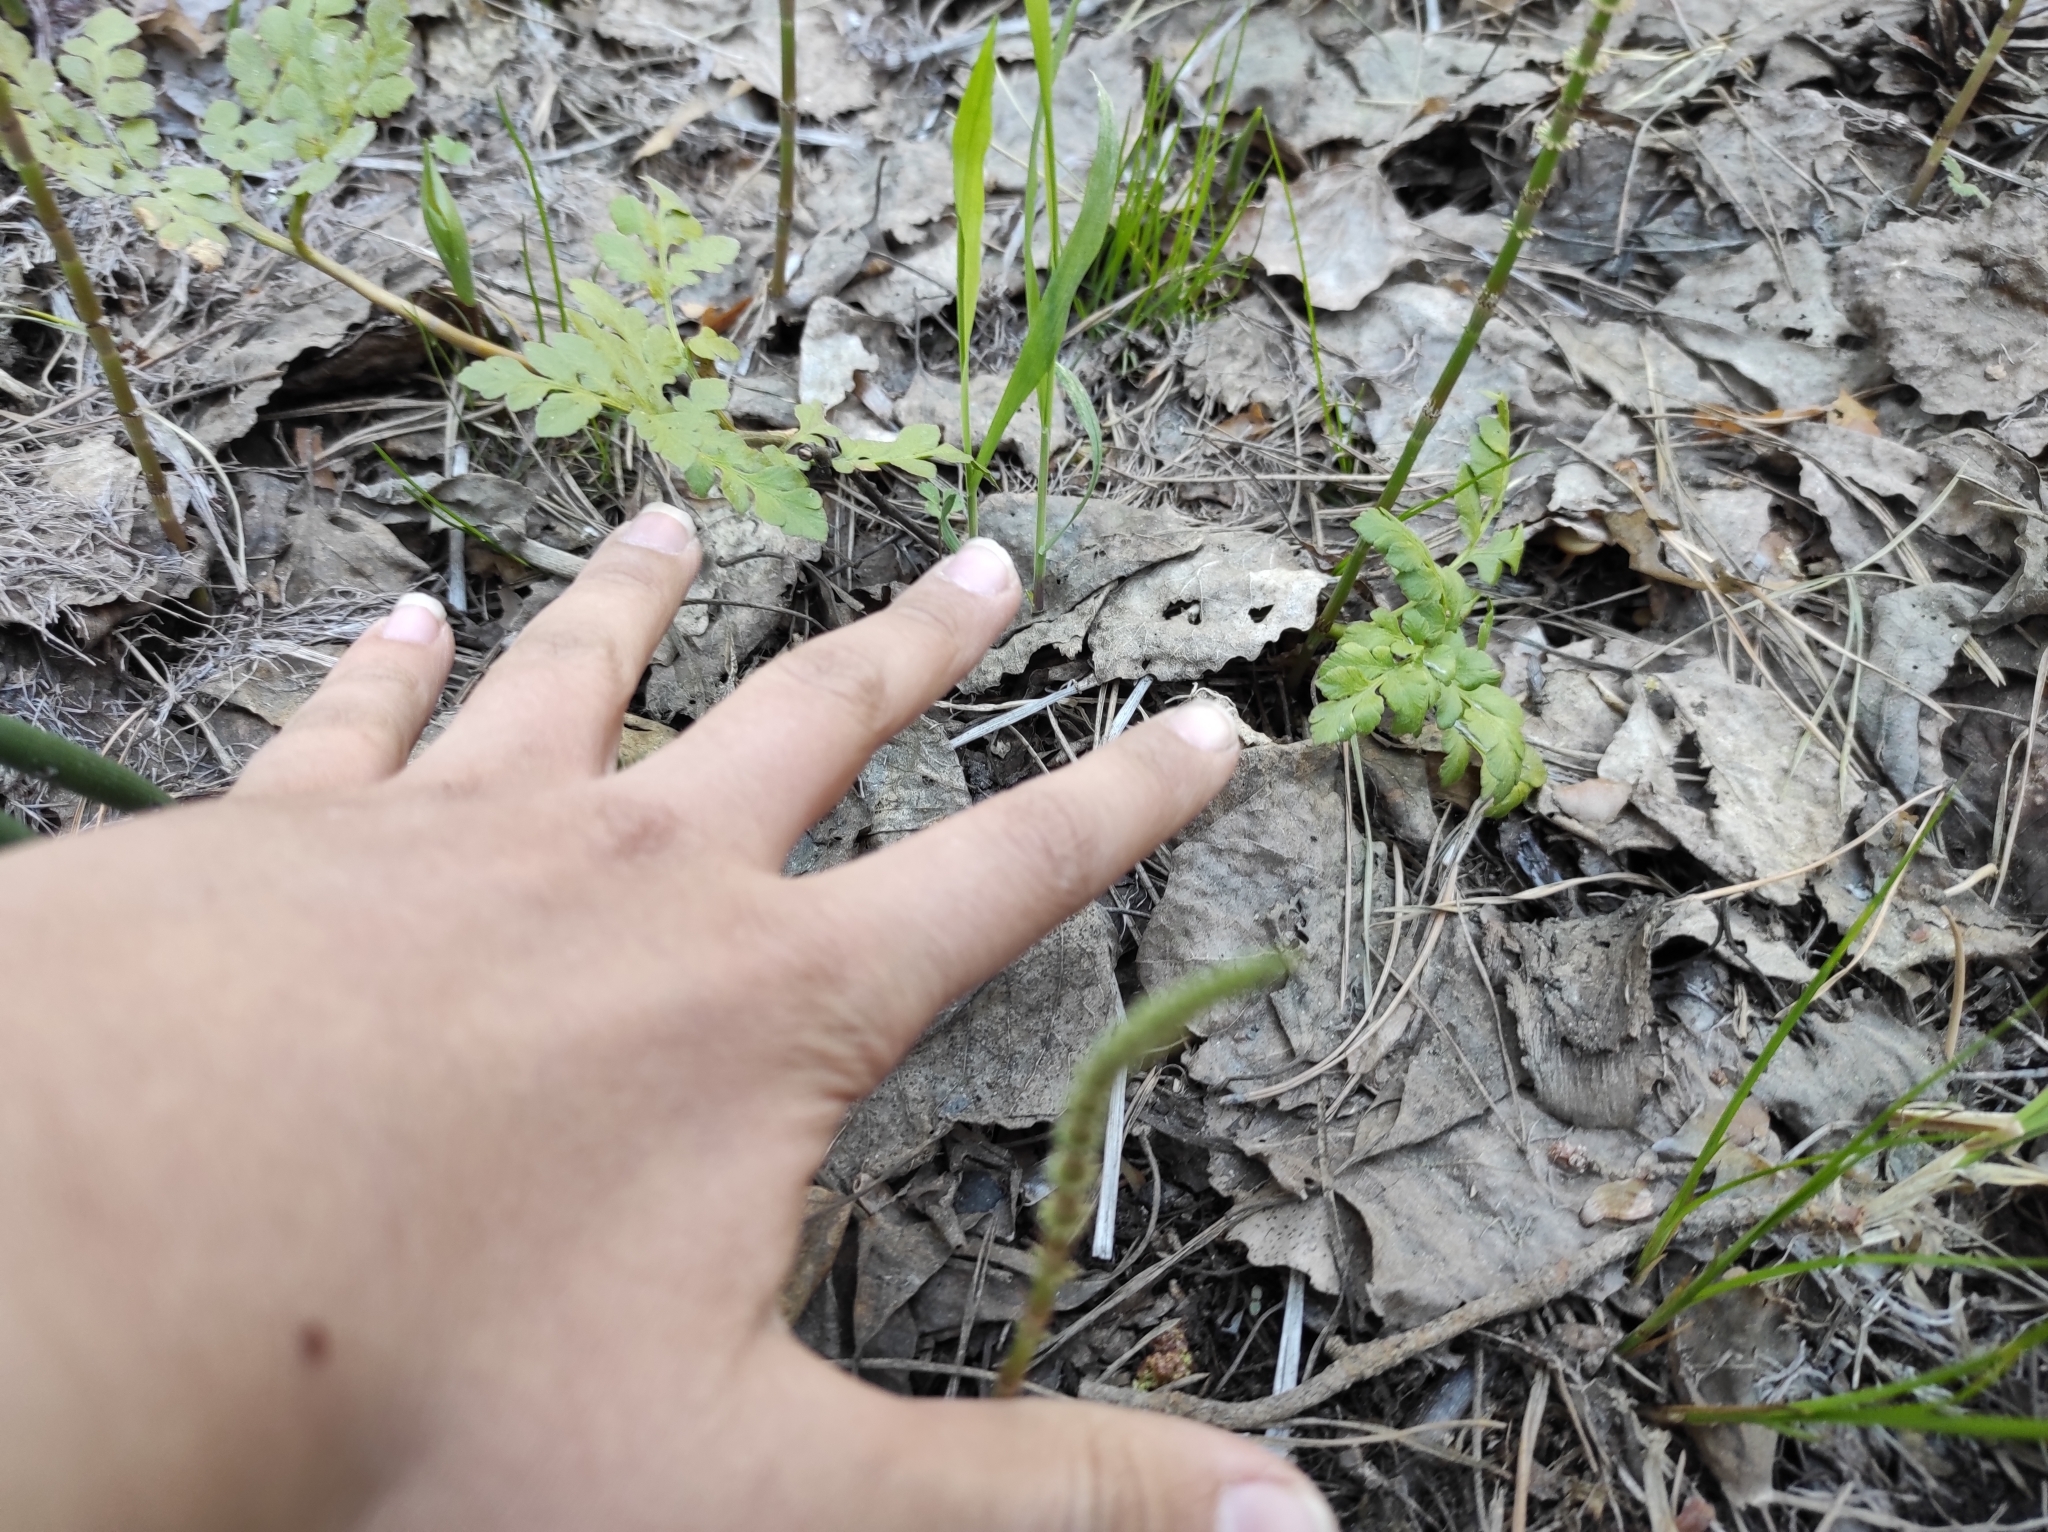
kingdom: Plantae
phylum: Tracheophyta
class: Polypodiopsida
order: Ophioglossales
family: Ophioglossaceae
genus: Sceptridium
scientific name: Sceptridium multifidum
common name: Leathery grape fern
